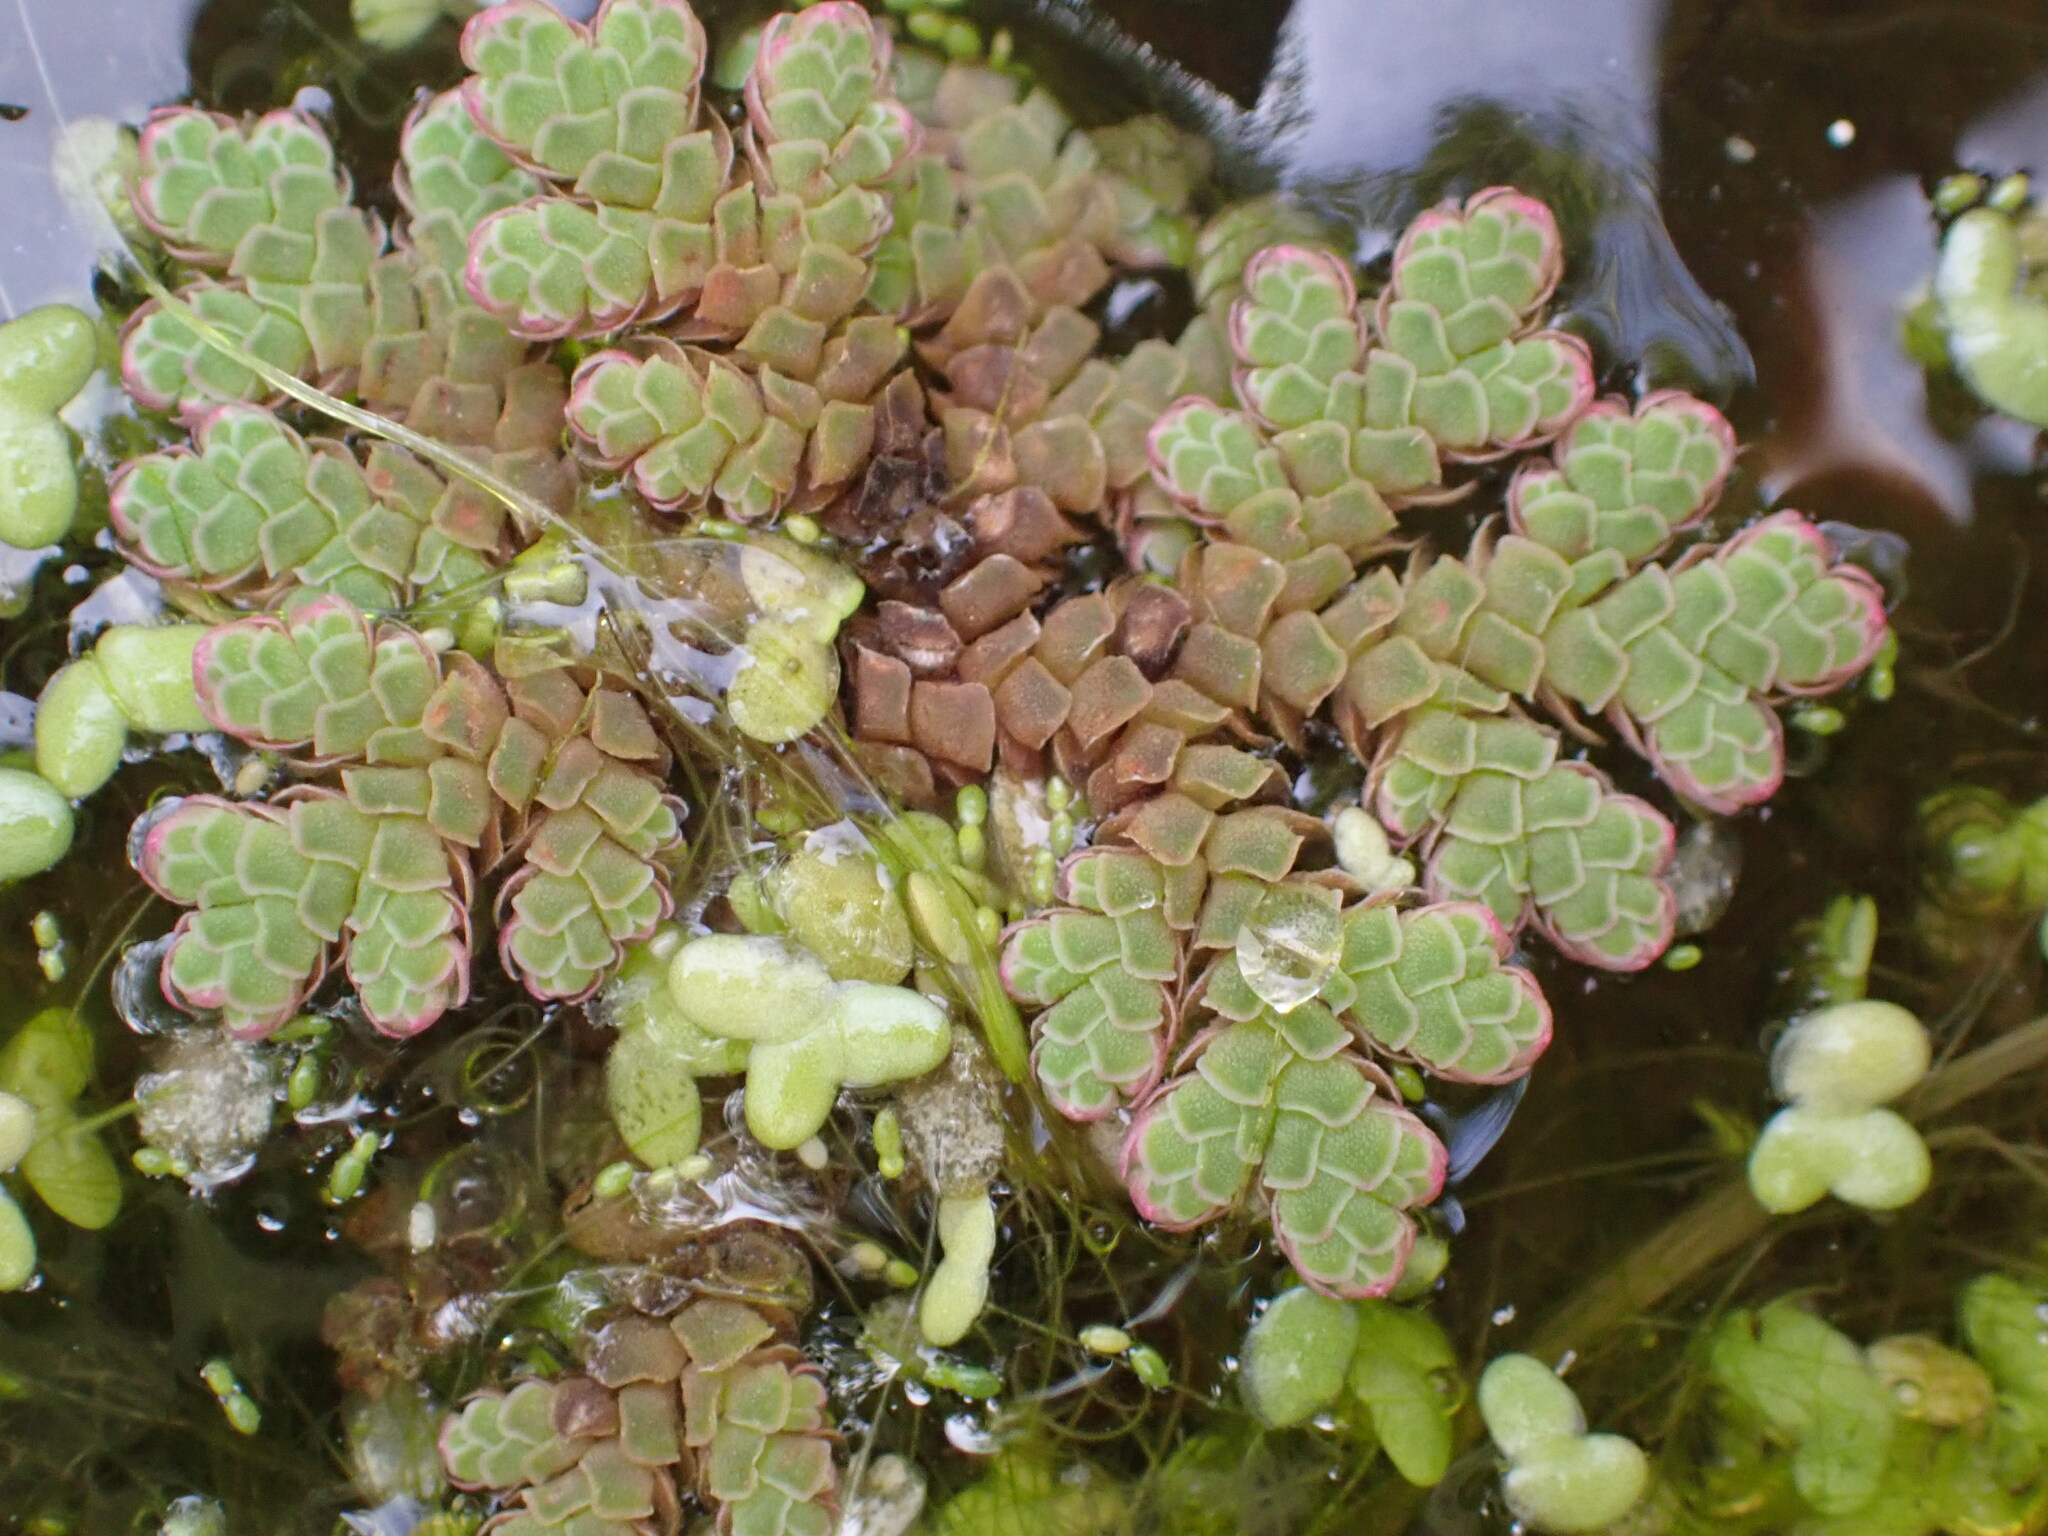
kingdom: Plantae
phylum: Tracheophyta
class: Polypodiopsida
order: Salviniales
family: Salviniaceae
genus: Azolla
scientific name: Azolla rubra
